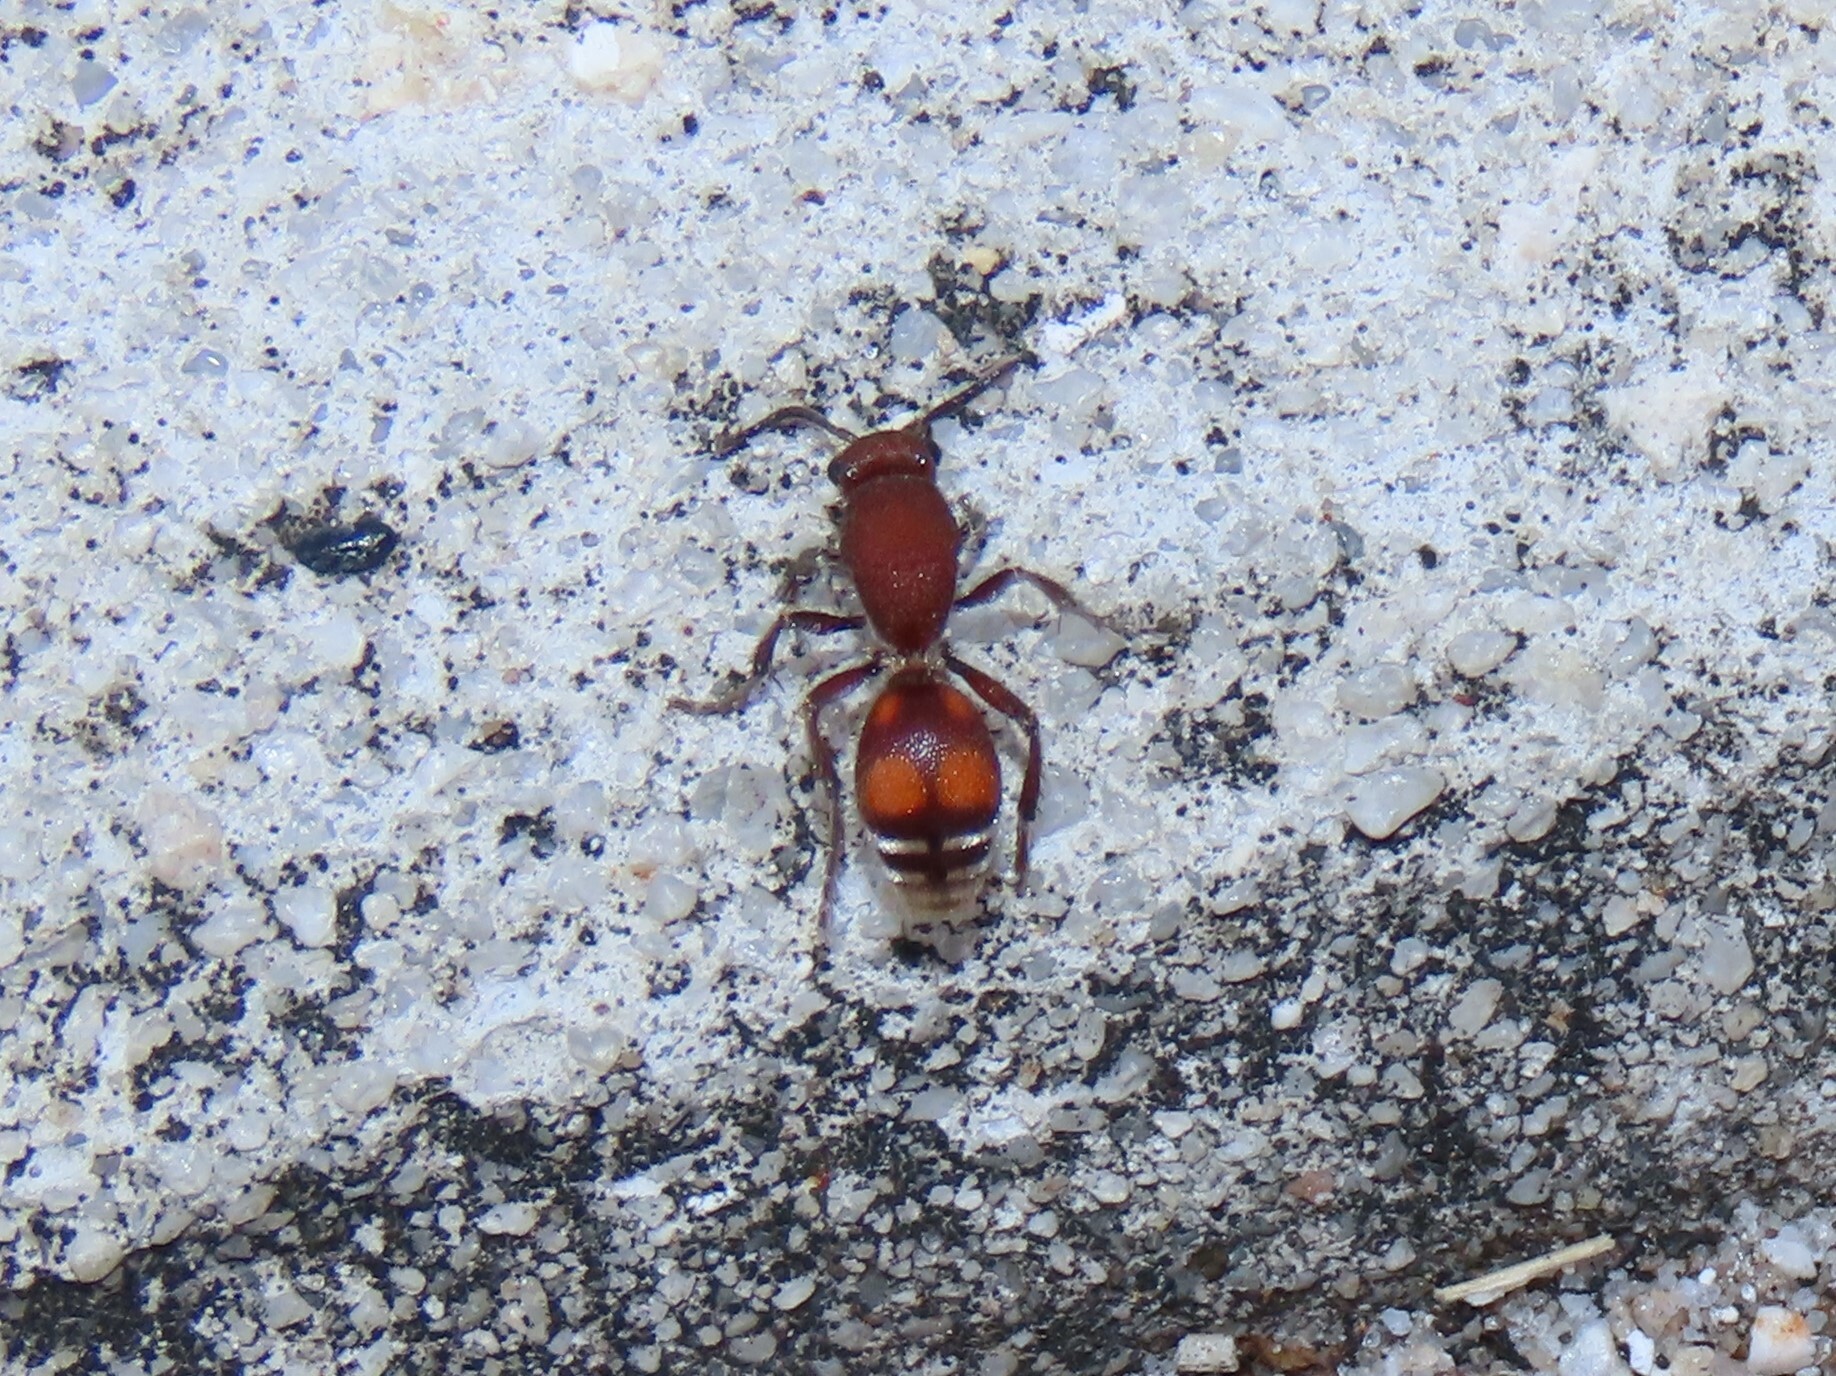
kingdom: Animalia
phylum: Arthropoda
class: Insecta
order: Hymenoptera
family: Mutillidae
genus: Dasymutilla
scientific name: Dasymutilla
